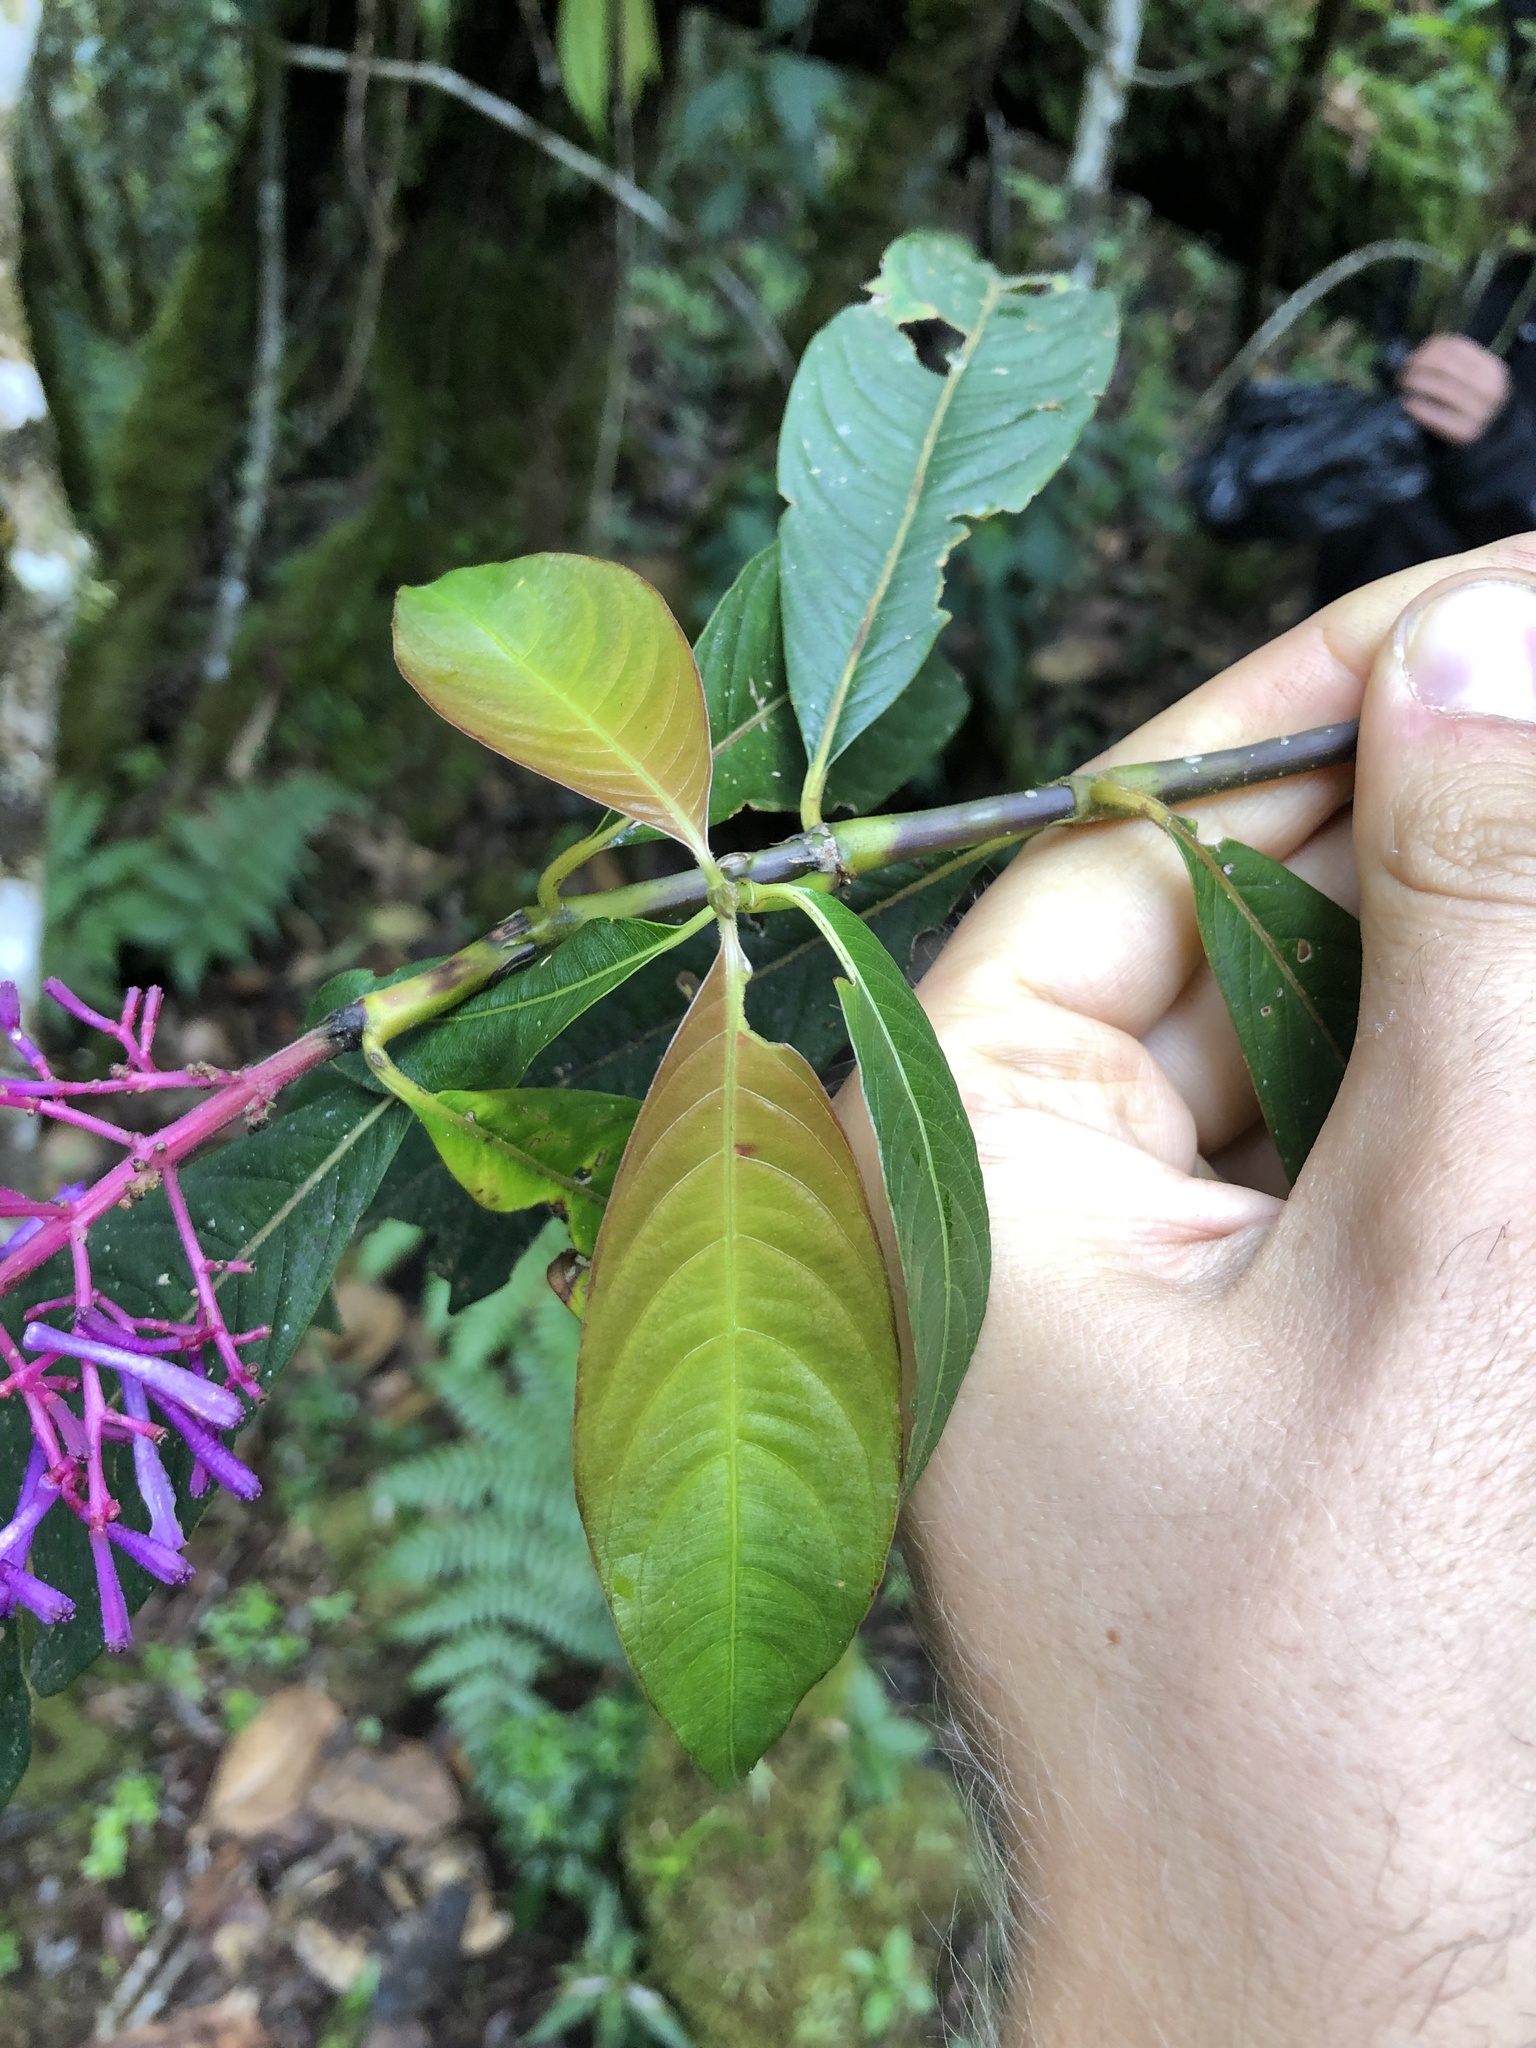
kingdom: Plantae
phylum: Tracheophyta
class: Magnoliopsida
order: Gentianales
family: Rubiaceae
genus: Palicourea
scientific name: Palicourea angustifolia
